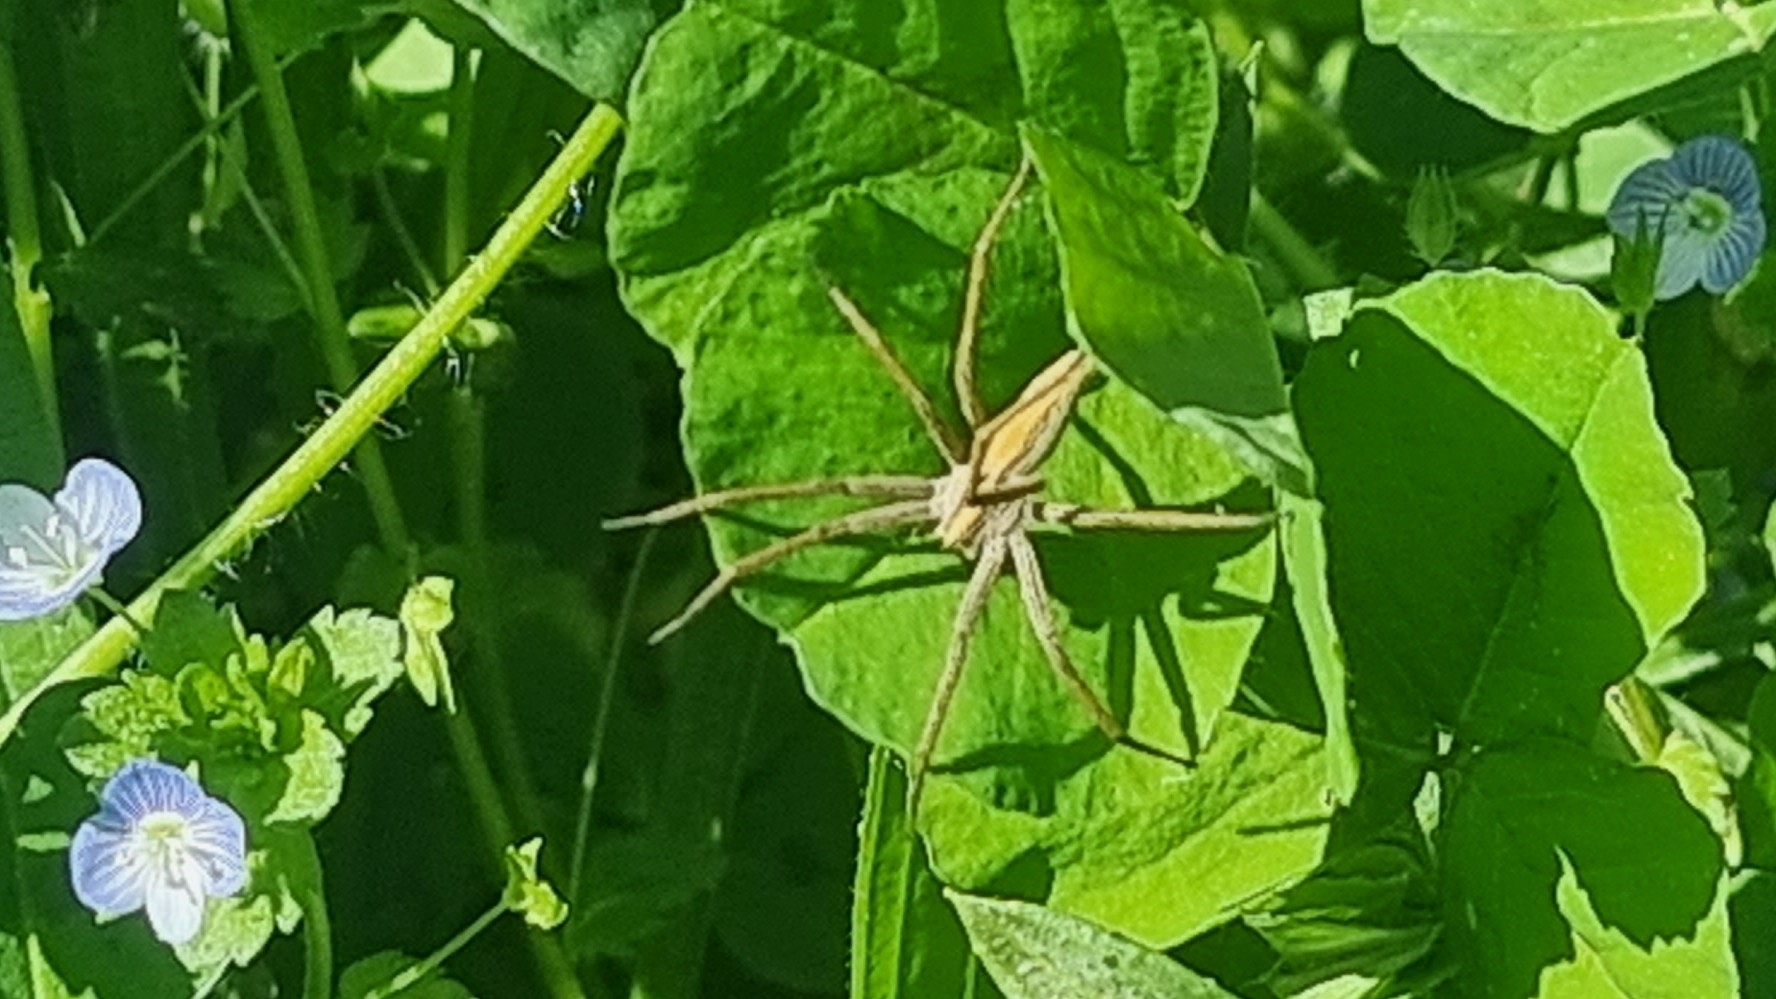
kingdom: Animalia
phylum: Arthropoda
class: Arachnida
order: Araneae
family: Pisauridae
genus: Pisaura
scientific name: Pisaura mirabilis
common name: Tent spider
